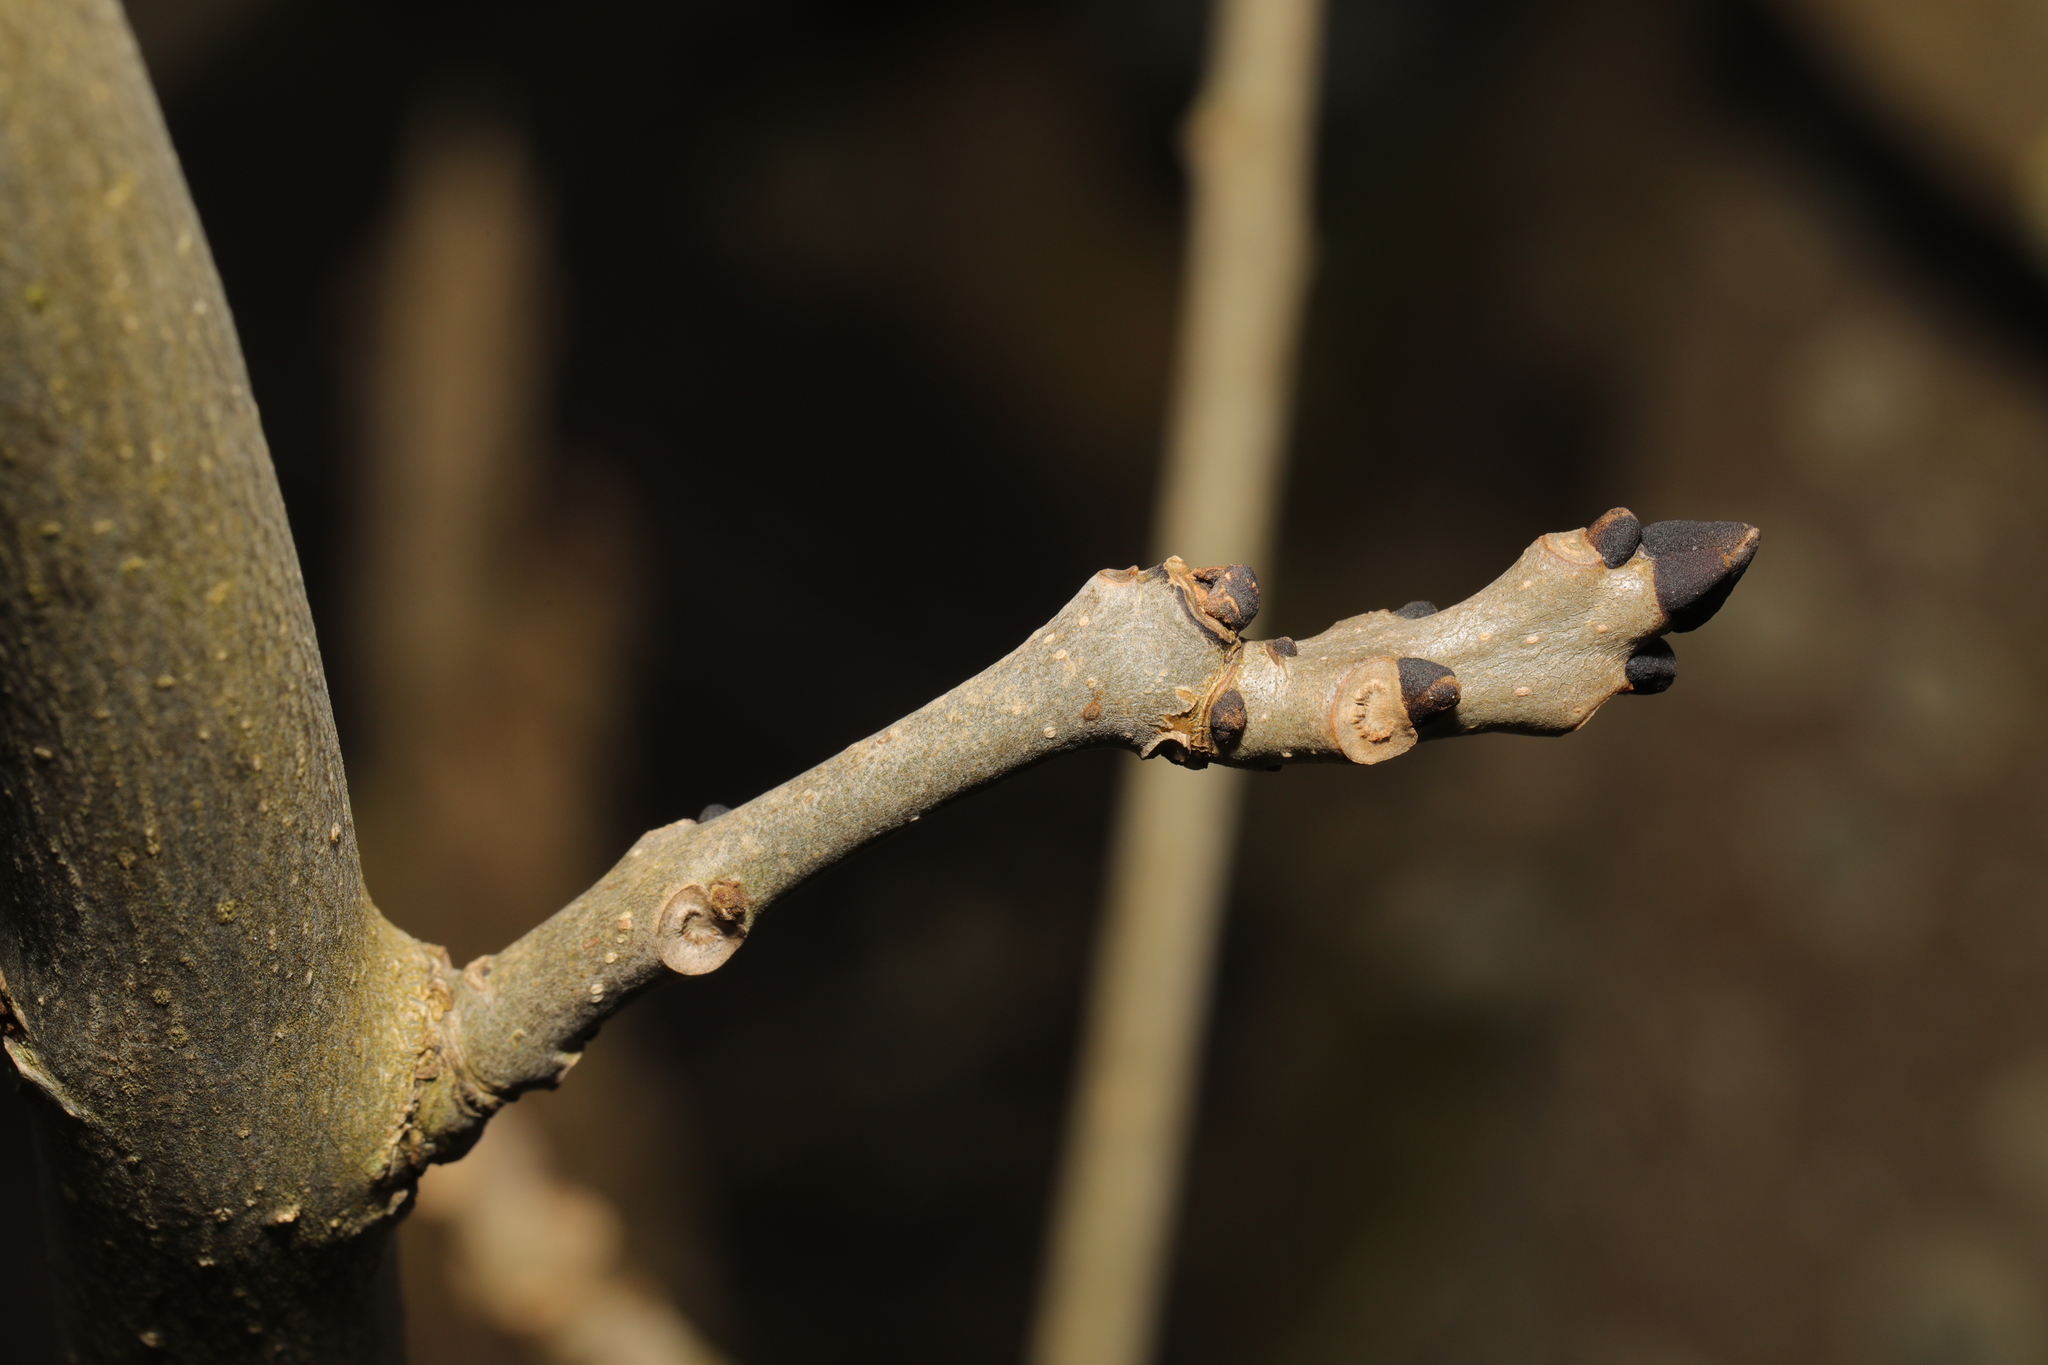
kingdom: Plantae
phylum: Tracheophyta
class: Magnoliopsida
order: Lamiales
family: Oleaceae
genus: Fraxinus
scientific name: Fraxinus excelsior
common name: European ash
